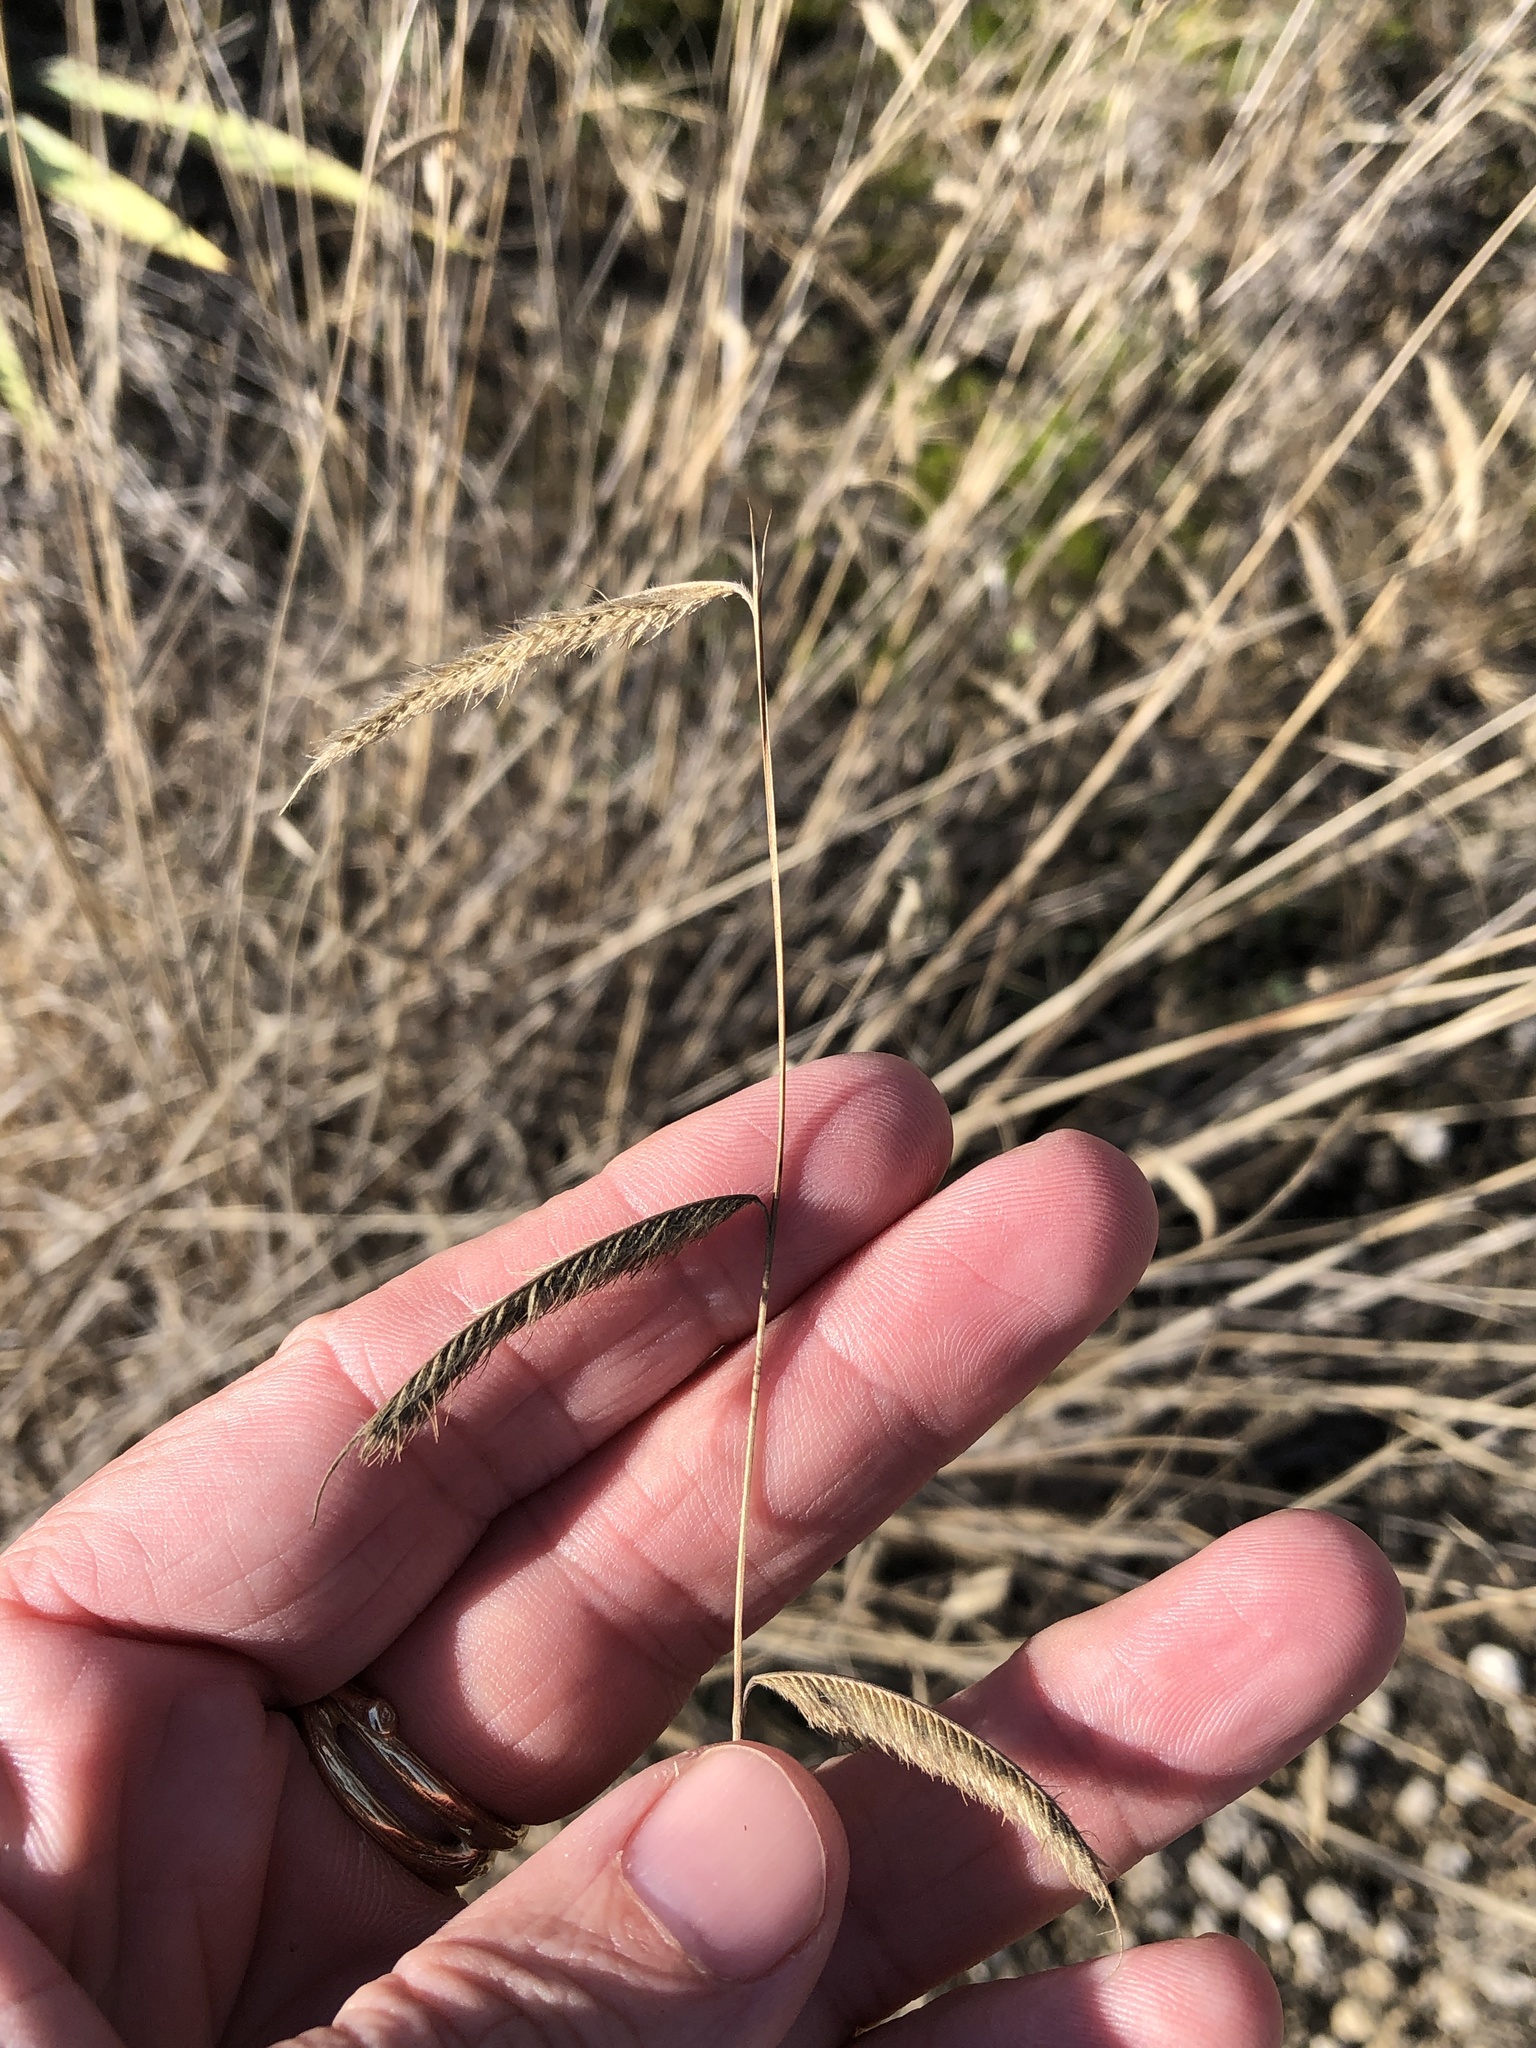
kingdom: Plantae
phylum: Tracheophyta
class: Liliopsida
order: Poales
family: Poaceae
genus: Bouteloua
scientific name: Bouteloua hirsuta
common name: Hairy grama
